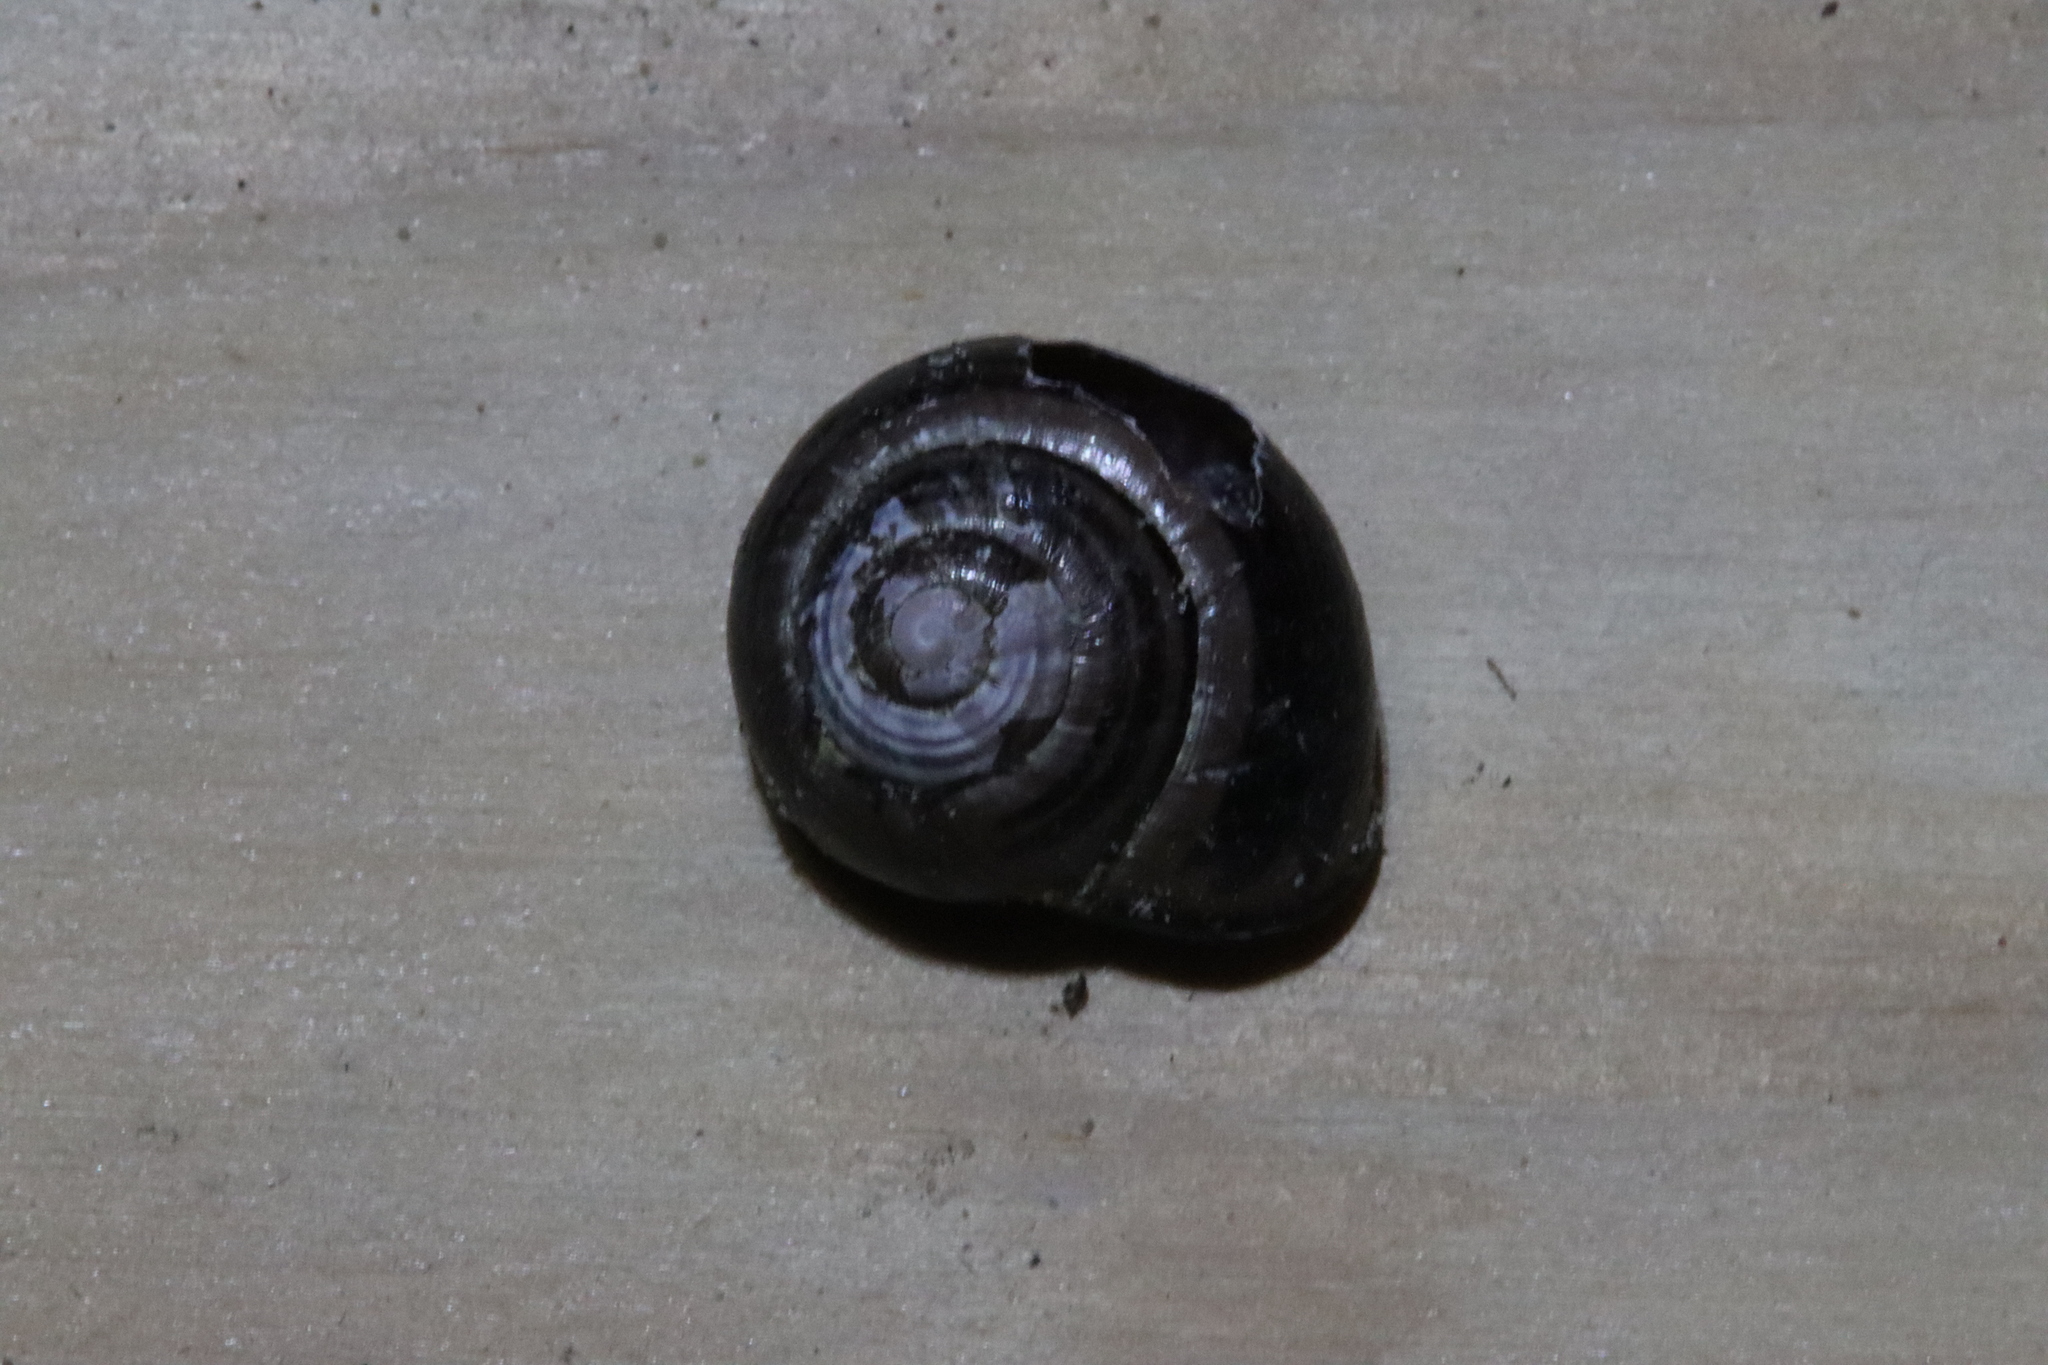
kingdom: Animalia
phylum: Mollusca
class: Gastropoda
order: Stylommatophora
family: Helicidae
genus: Cepaea
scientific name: Cepaea nemoralis
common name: Grovesnail
